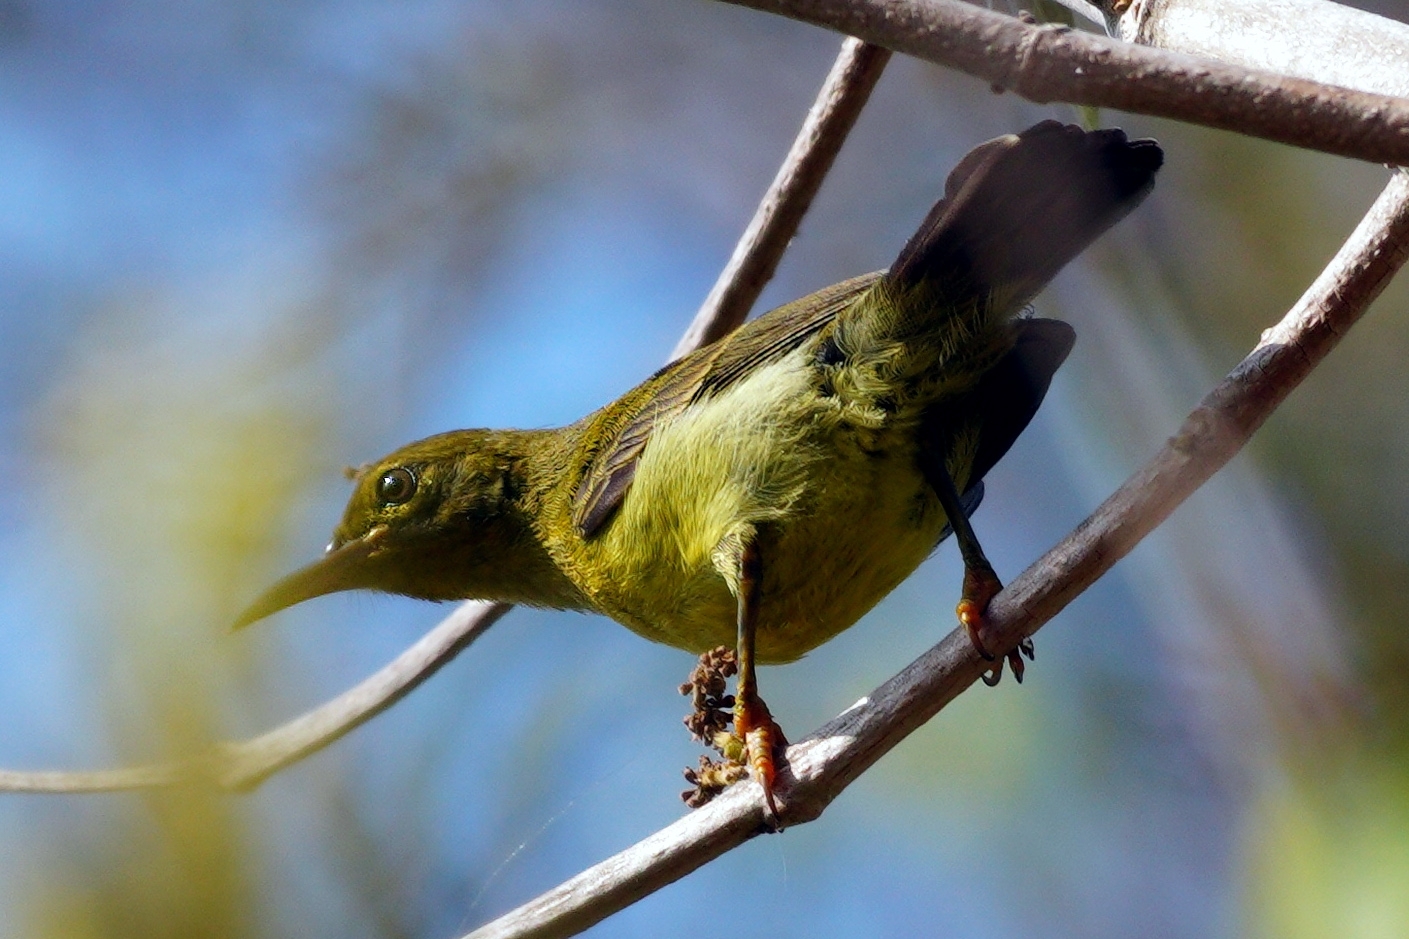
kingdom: Animalia
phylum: Chordata
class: Aves
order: Passeriformes
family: Nectariniidae
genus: Anthreptes
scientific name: Anthreptes malacensis
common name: Brown-throated sunbird
